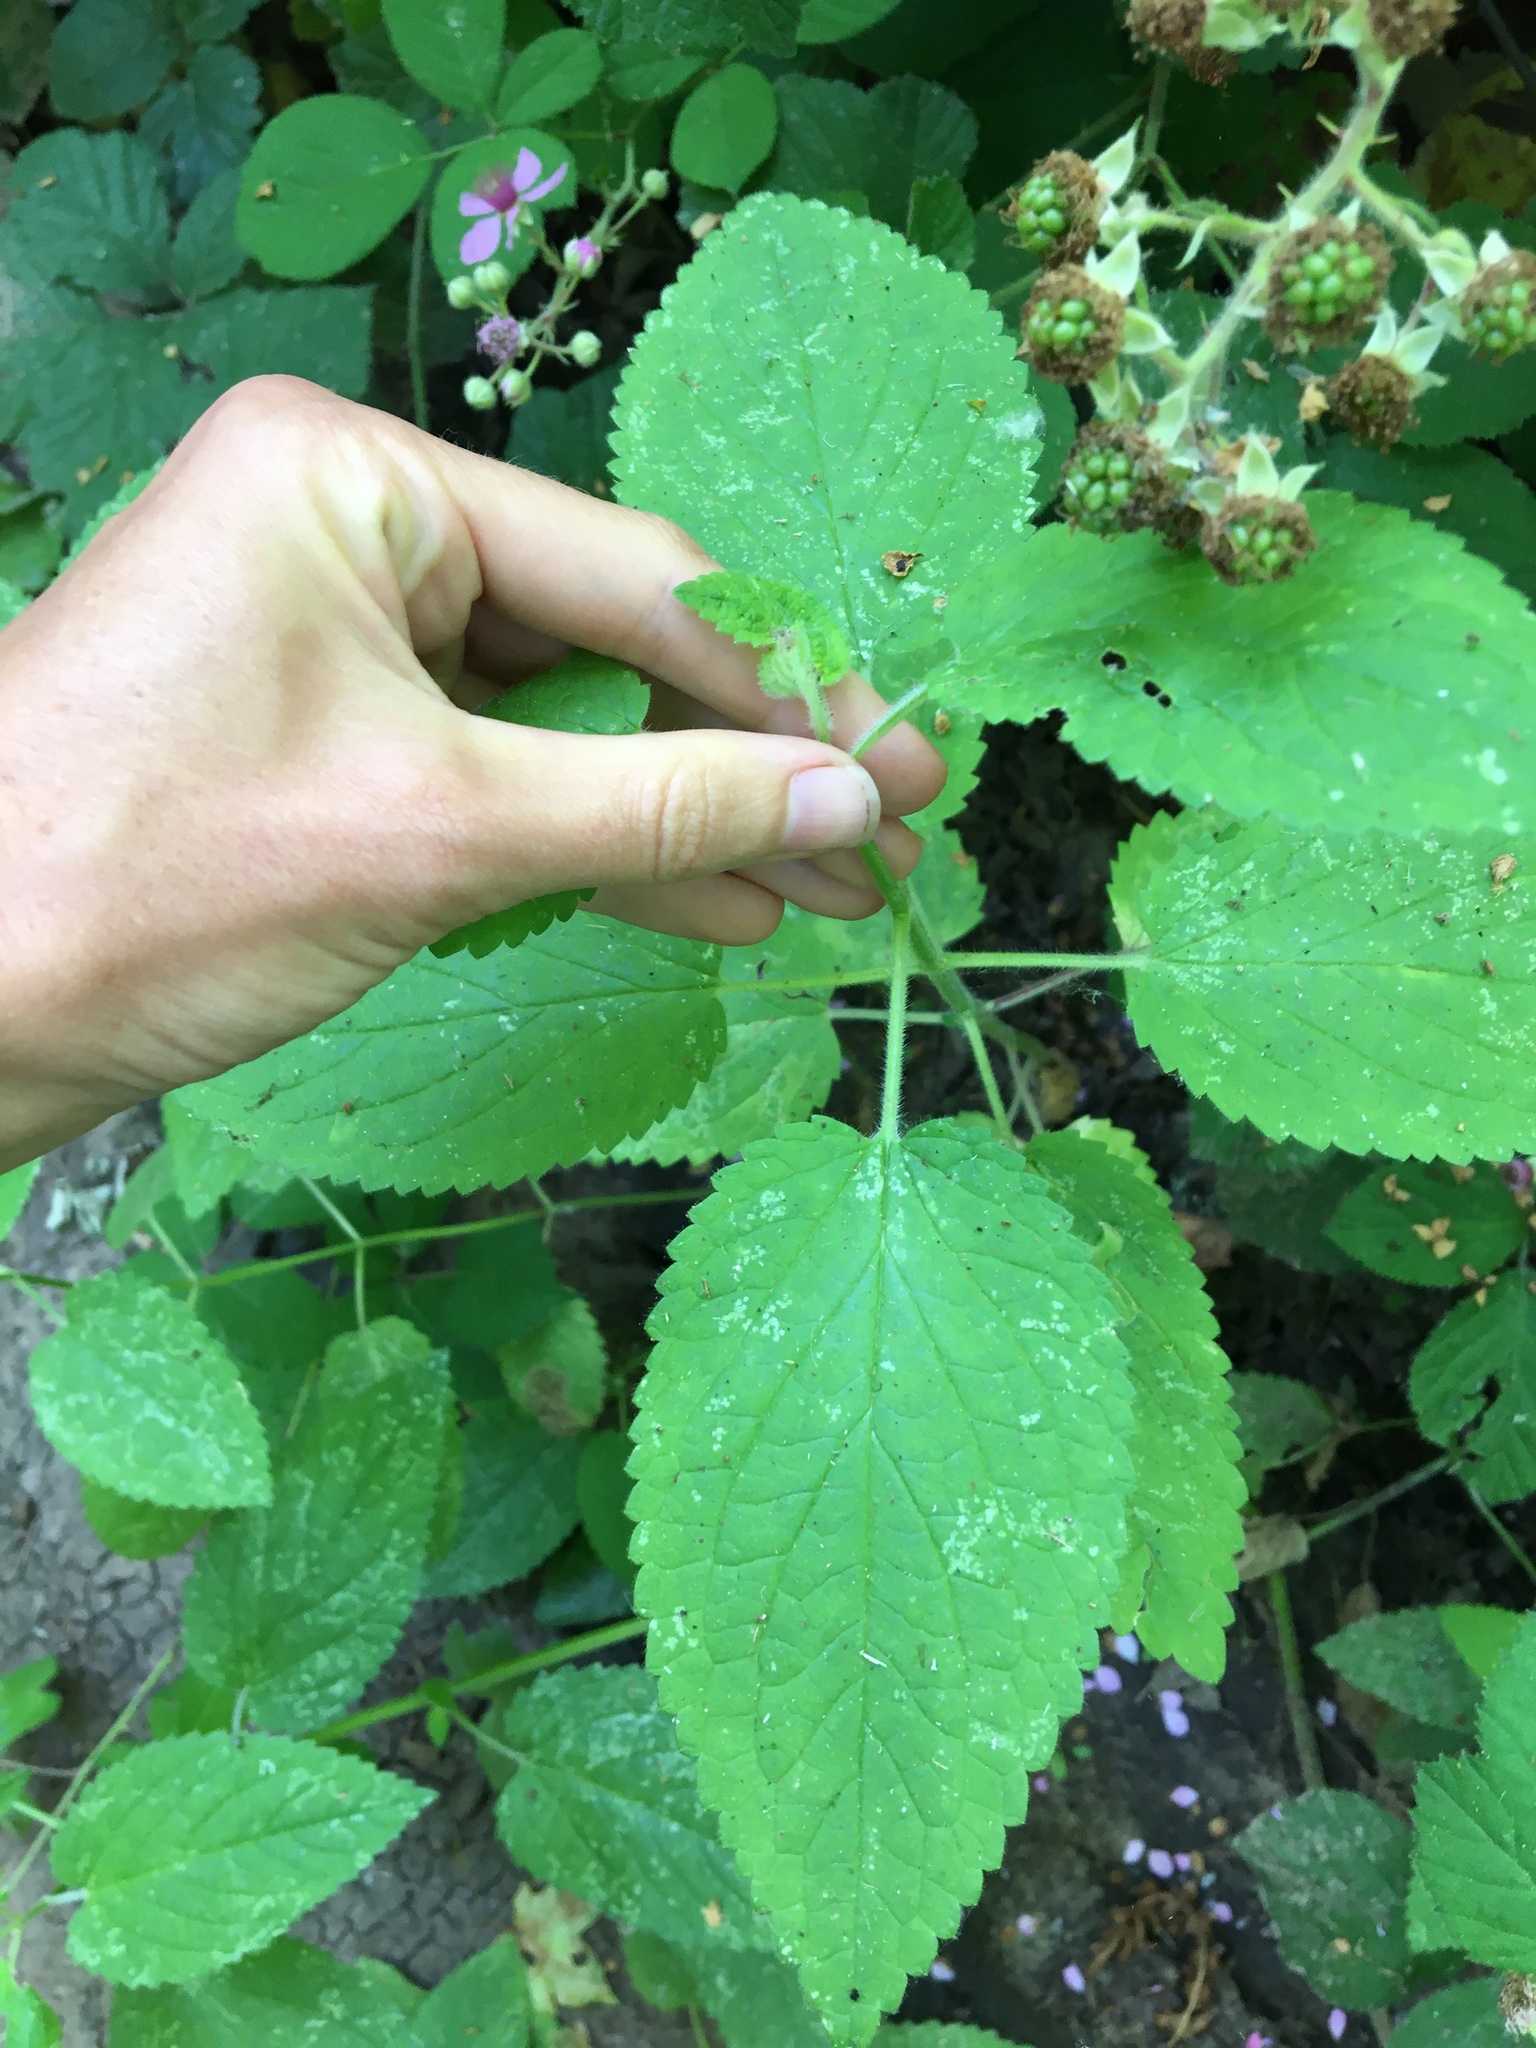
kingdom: Plantae
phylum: Tracheophyta
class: Magnoliopsida
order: Lamiales
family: Lamiaceae
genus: Stachys
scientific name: Stachys chamissonis
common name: Coastal hedge-nettle
